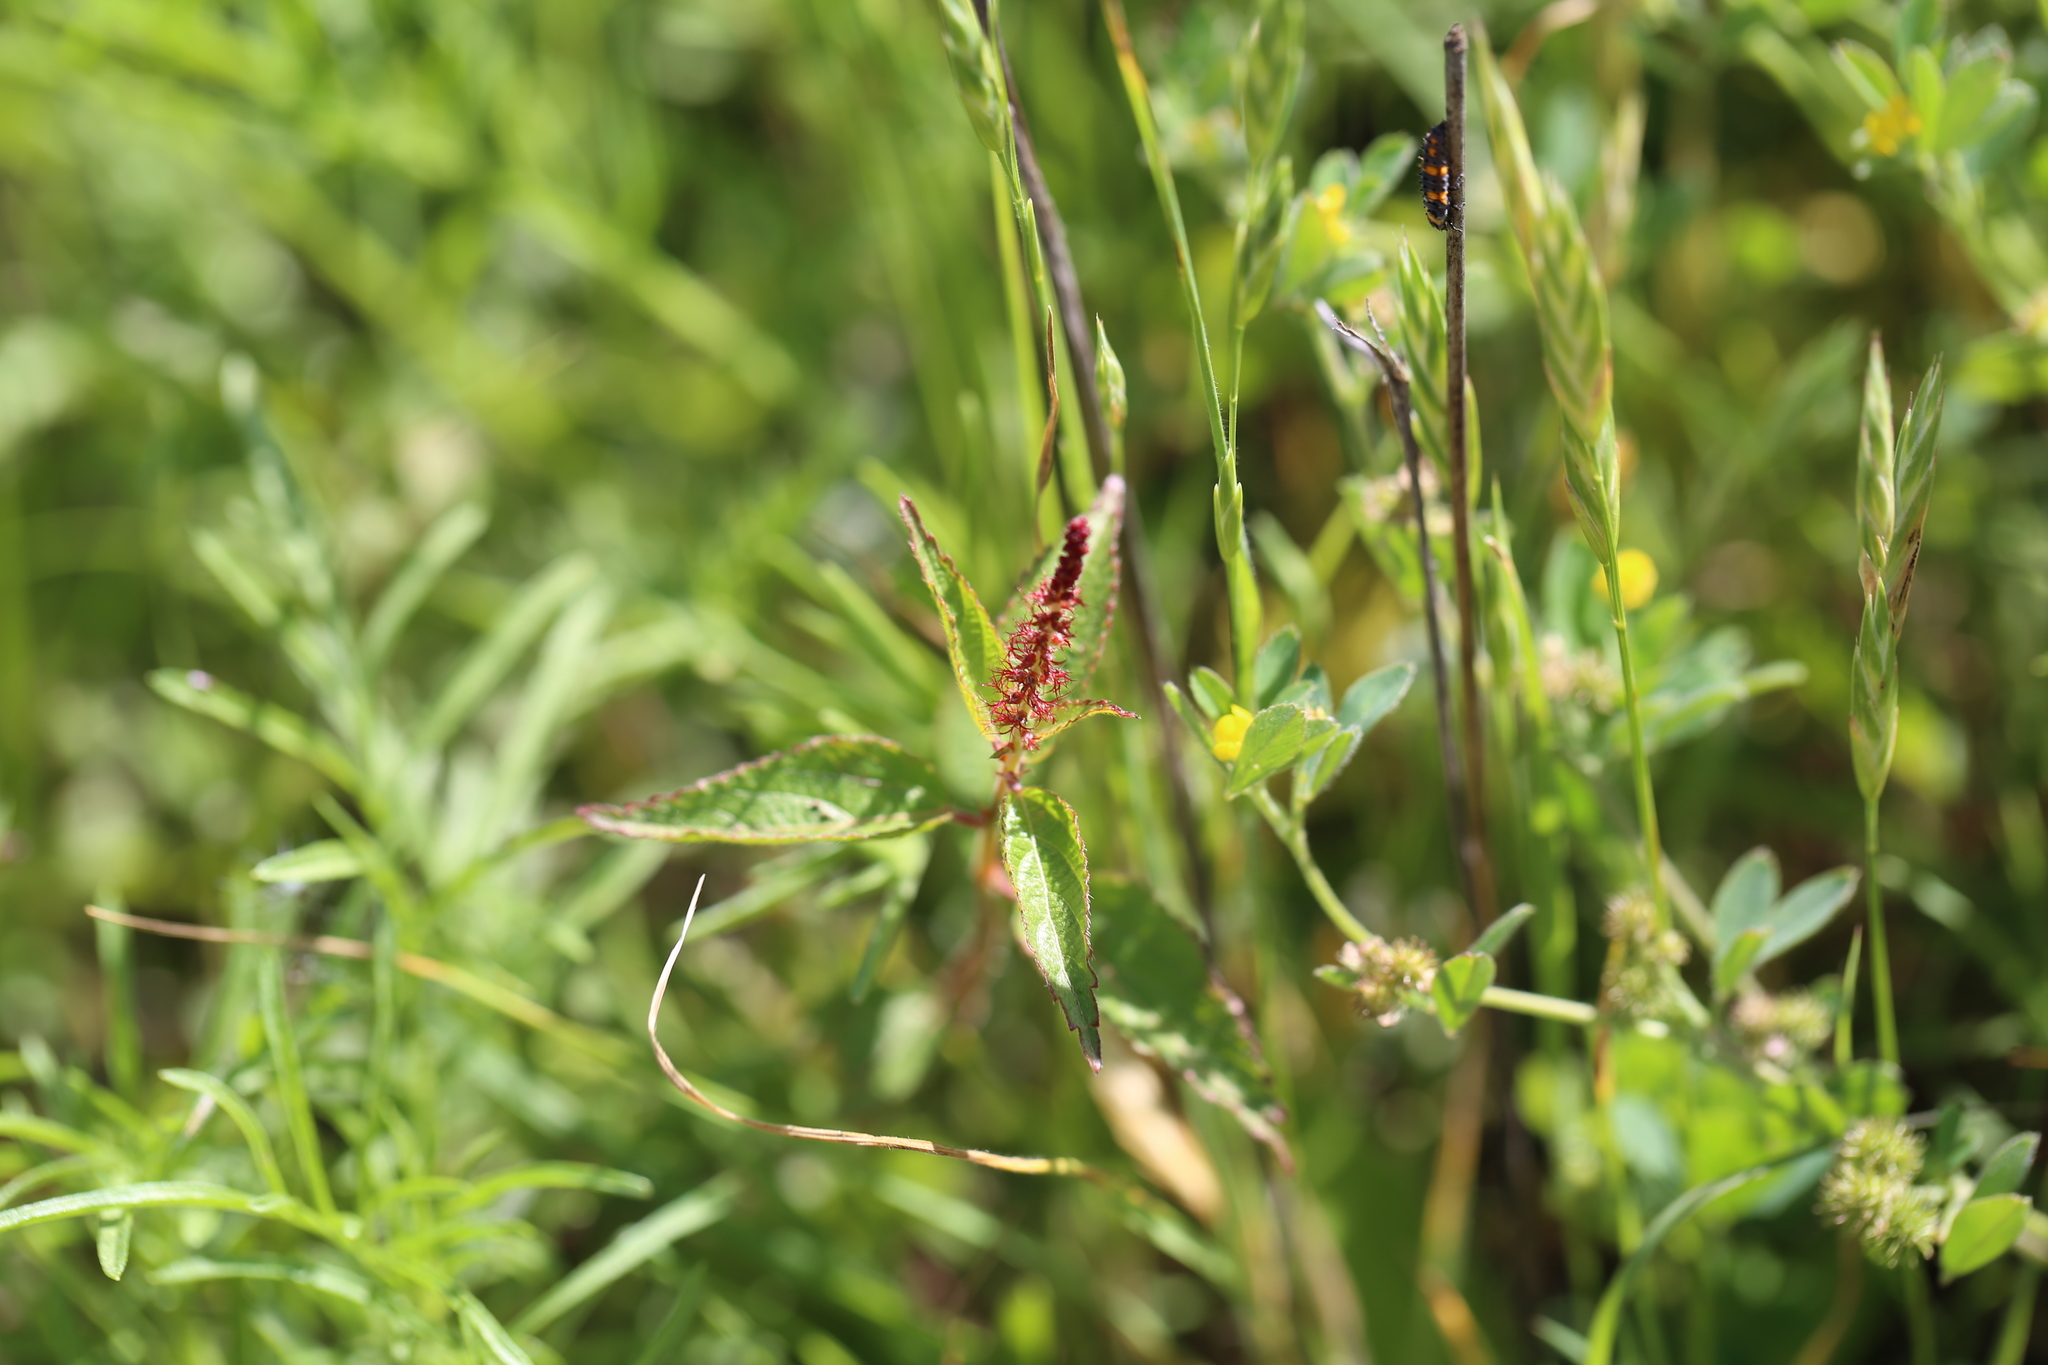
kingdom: Plantae
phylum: Tracheophyta
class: Magnoliopsida
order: Malpighiales
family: Euphorbiaceae
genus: Acalypha
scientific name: Acalypha phleoides
